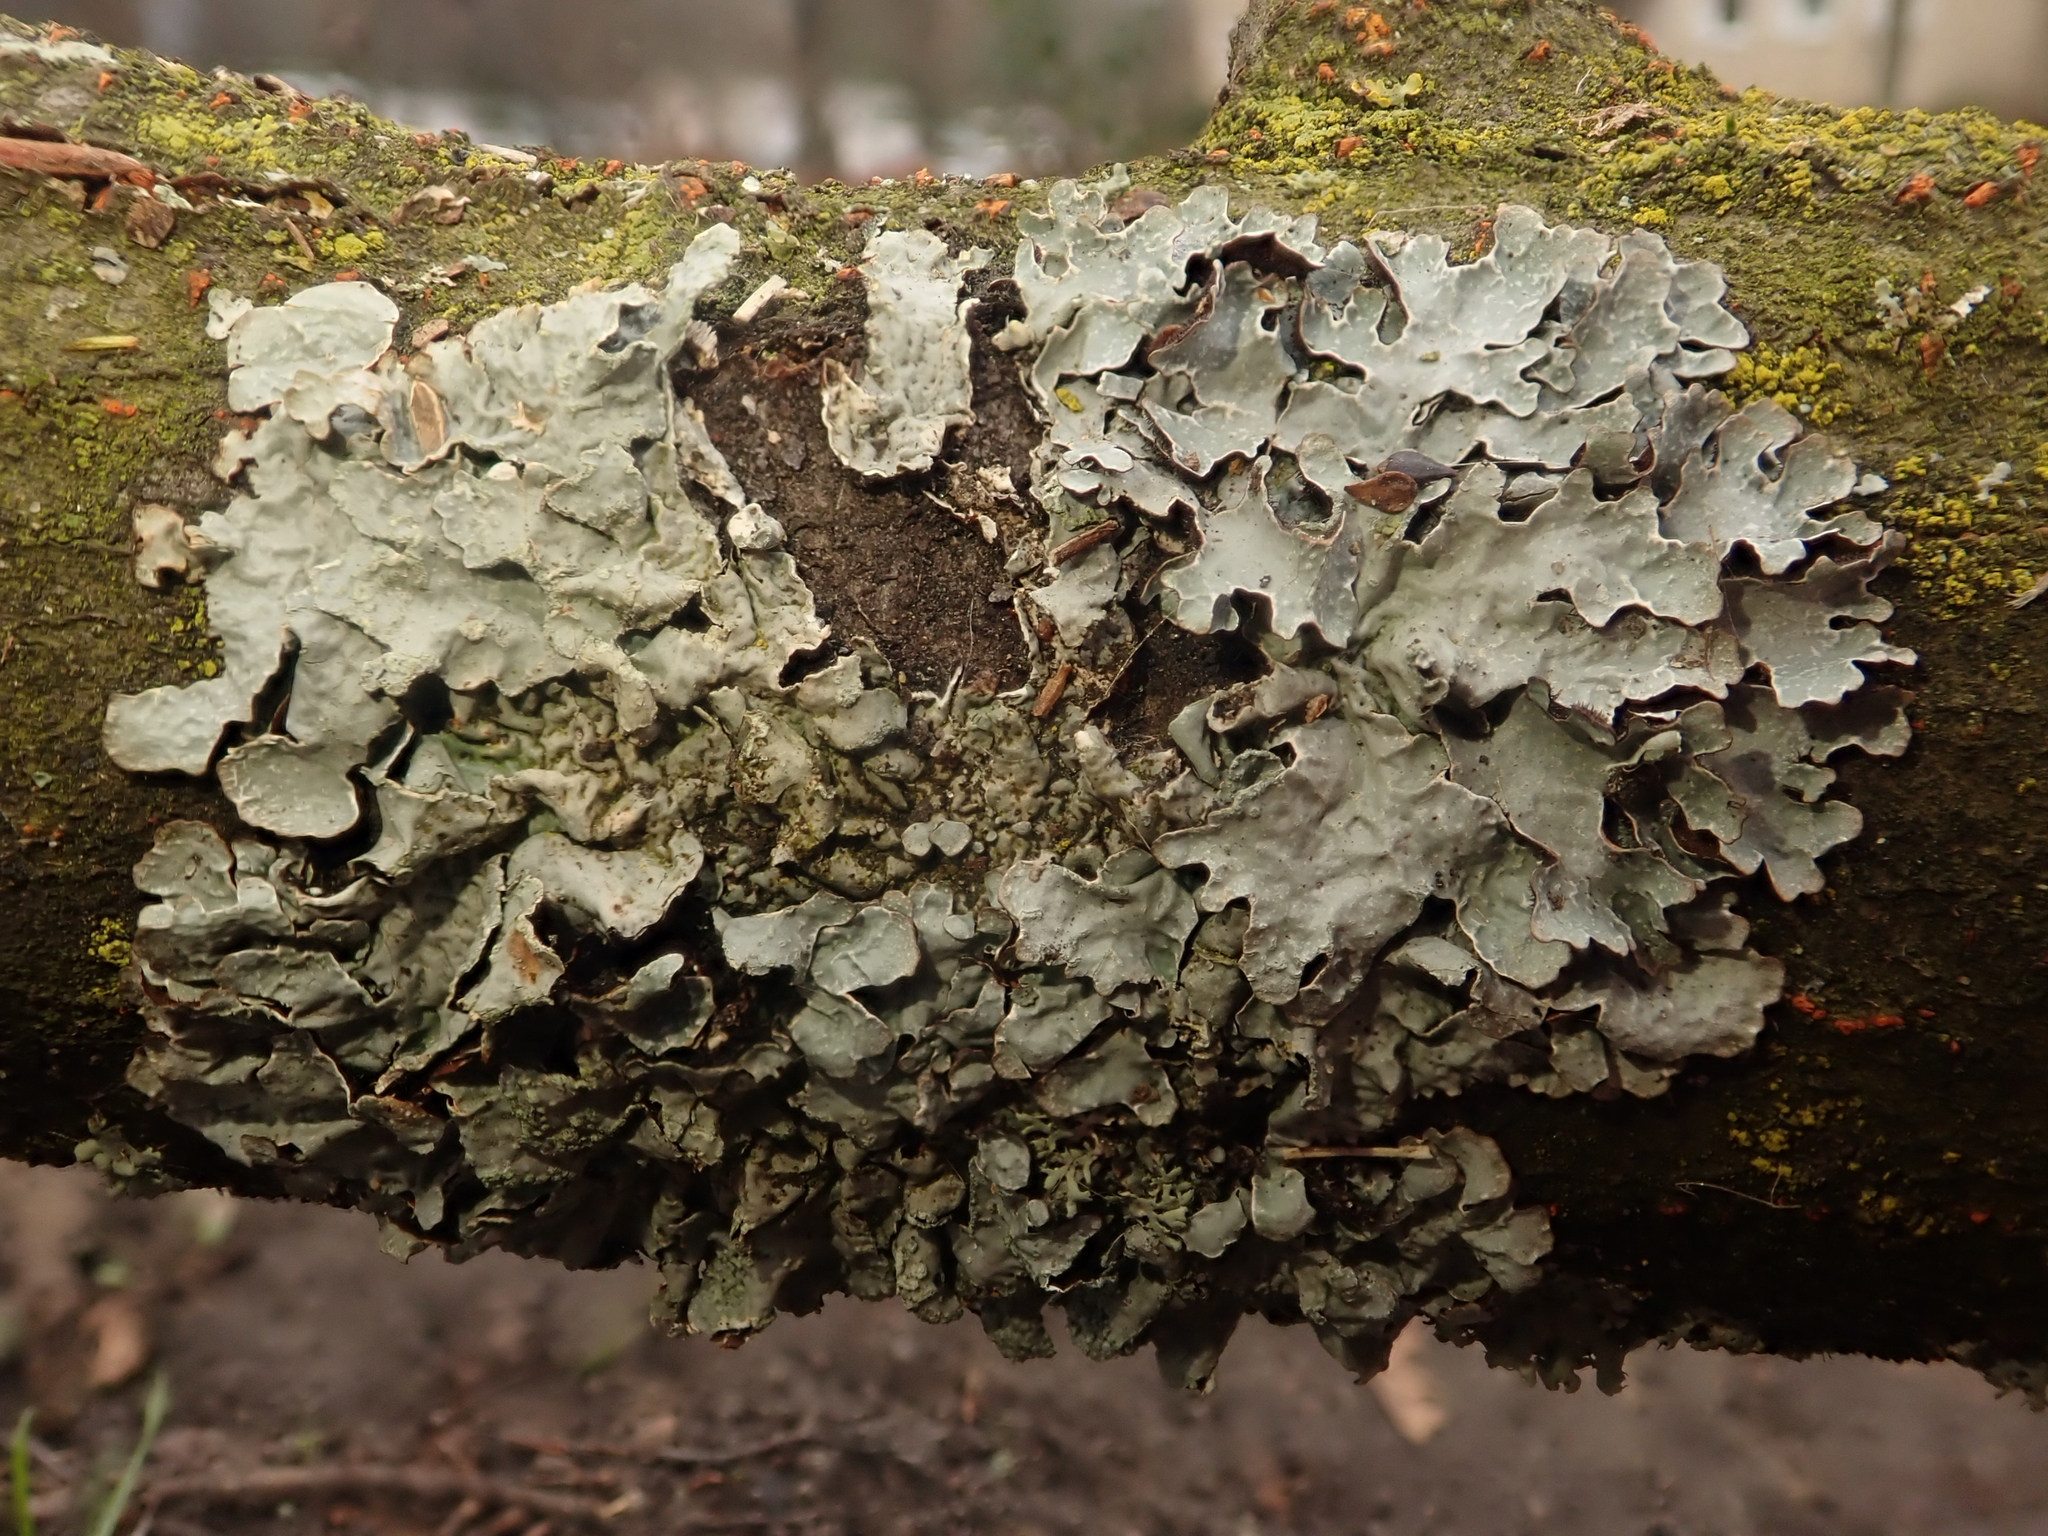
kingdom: Fungi
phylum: Ascomycota
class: Lecanoromycetes
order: Lecanorales
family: Parmeliaceae
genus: Parmelia
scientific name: Parmelia sulcata
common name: Netted shield lichen
